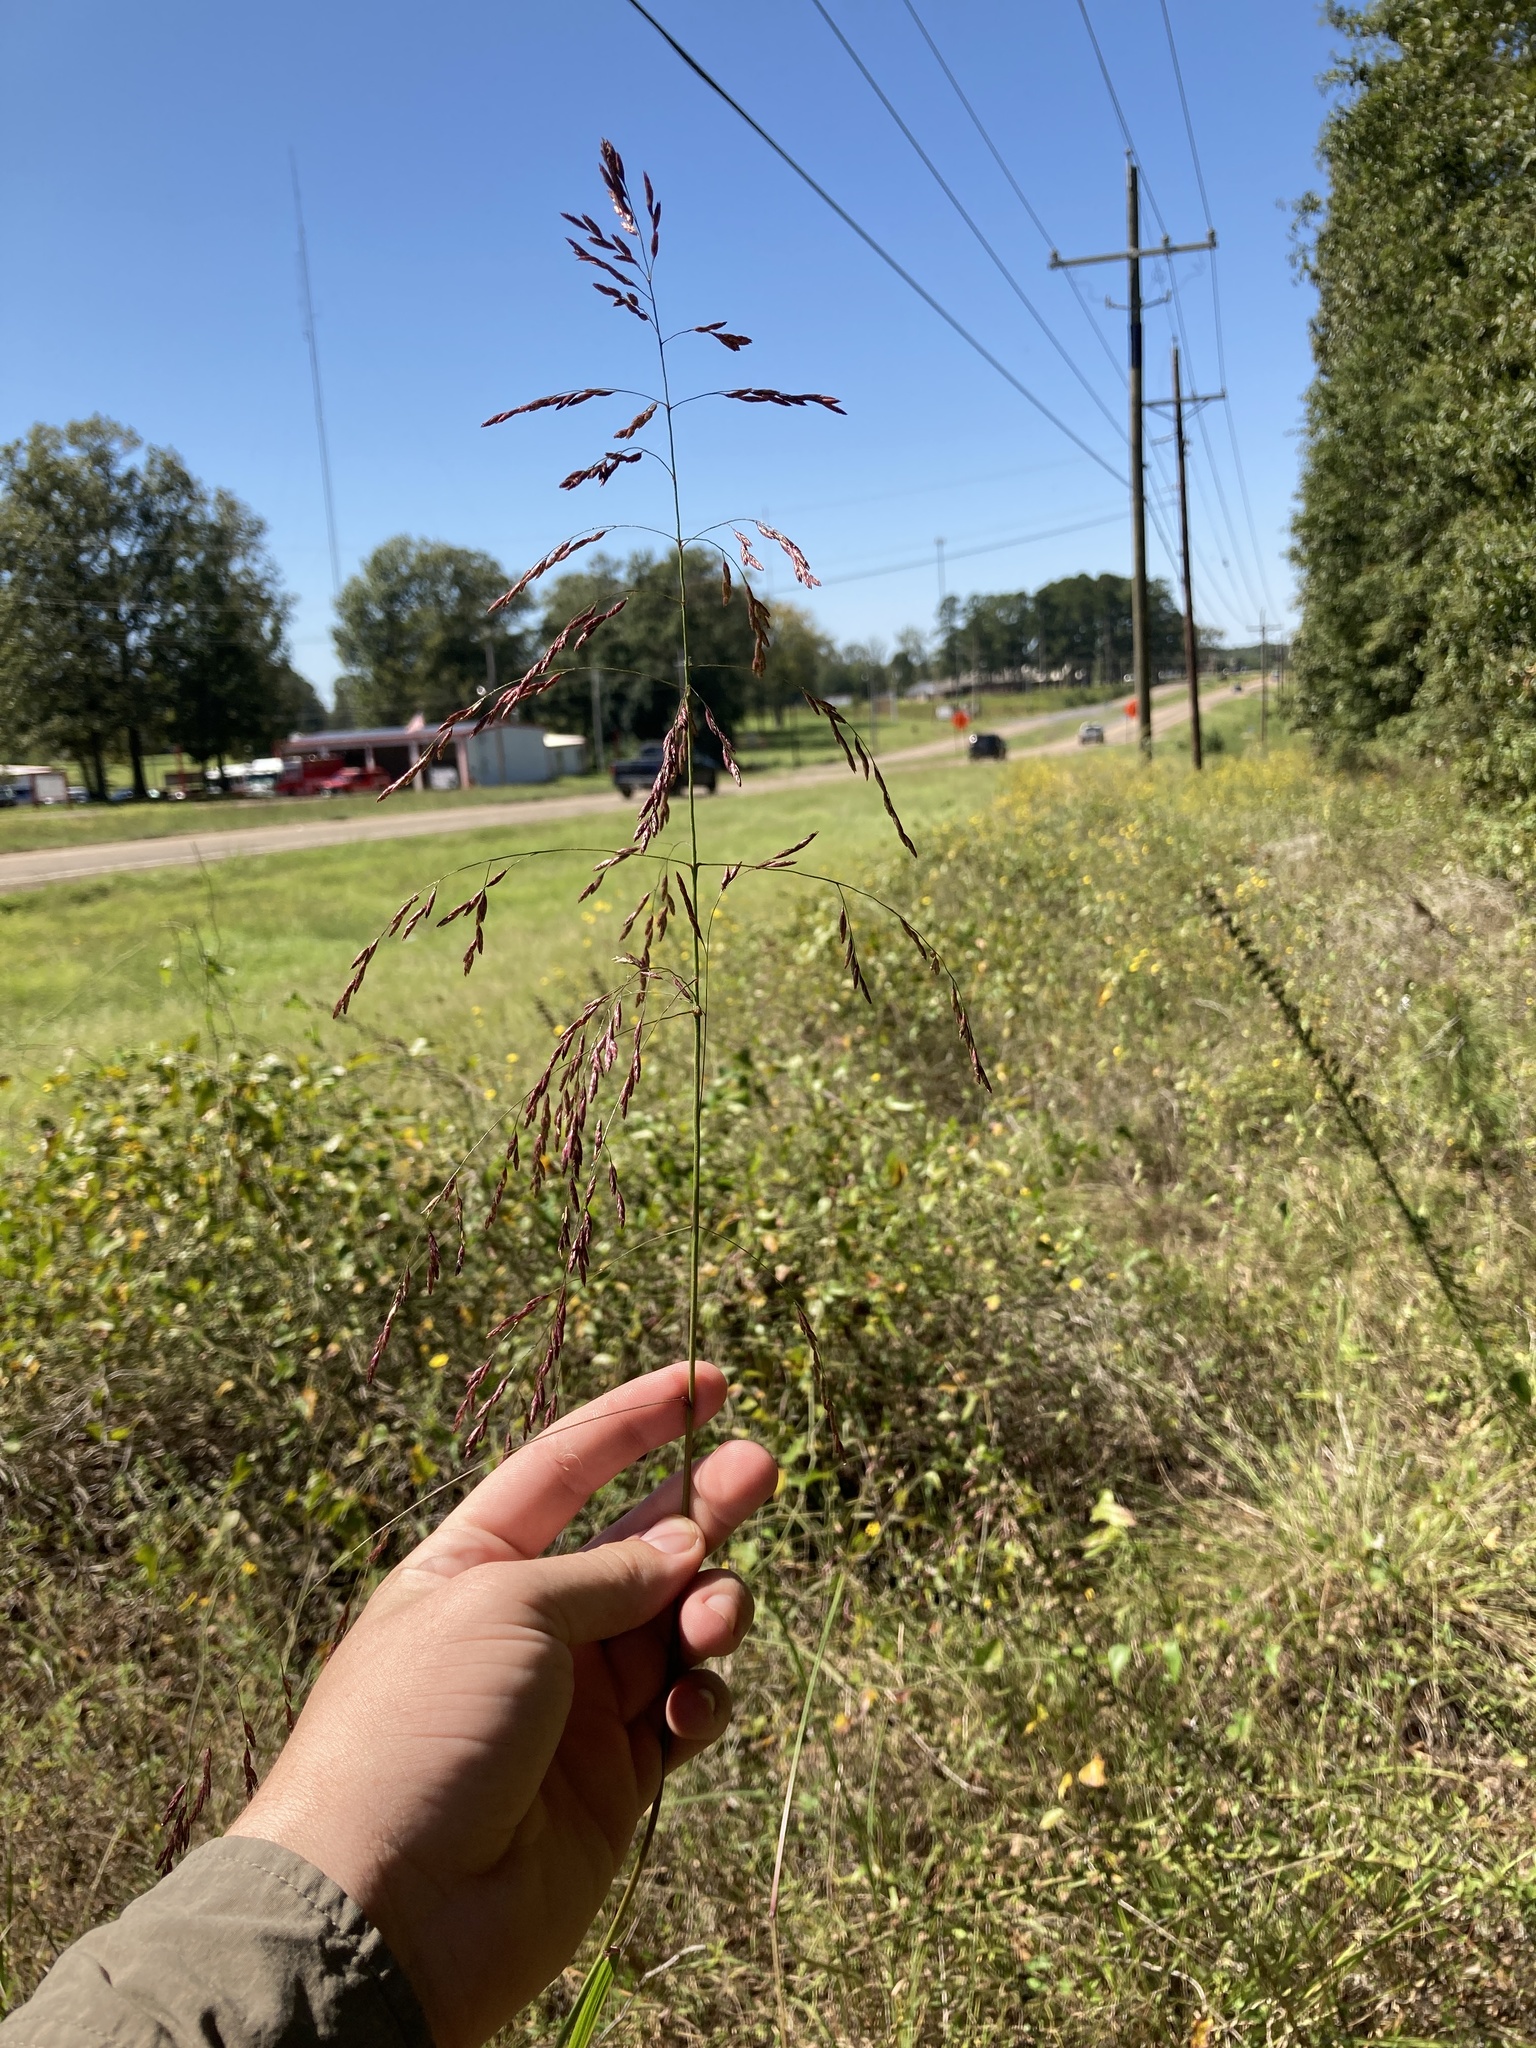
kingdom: Plantae
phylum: Tracheophyta
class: Liliopsida
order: Poales
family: Poaceae
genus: Tridens
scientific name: Tridens flavus
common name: Purpletop
